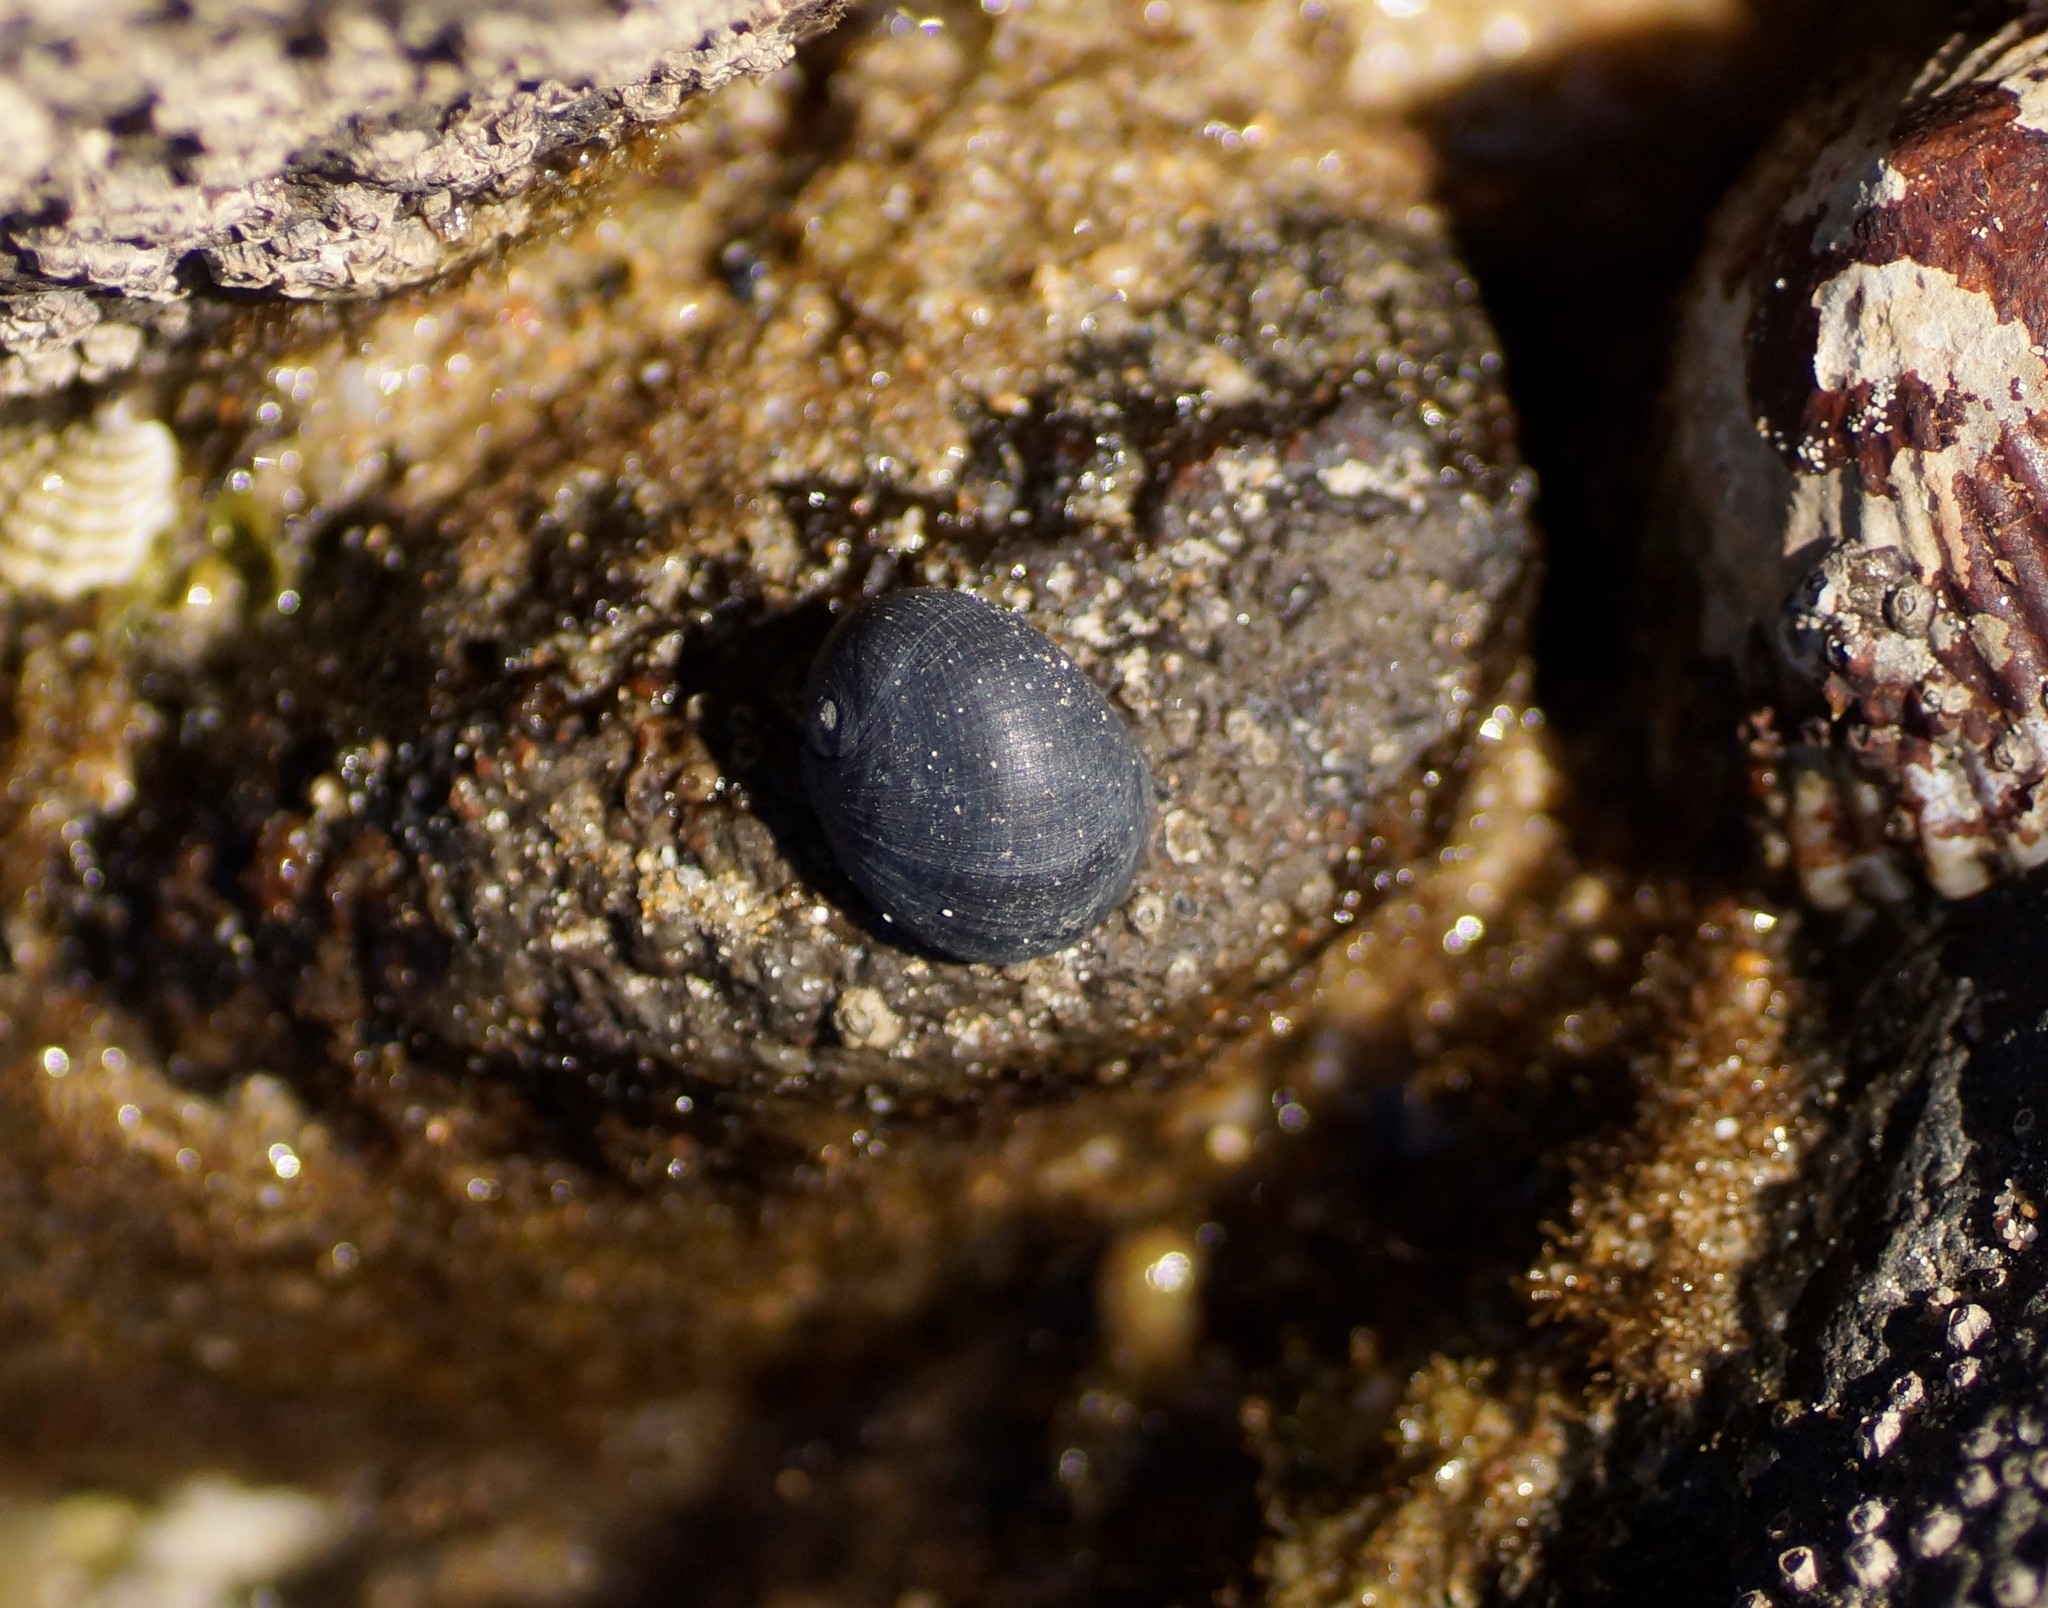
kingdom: Animalia
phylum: Mollusca
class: Gastropoda
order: Cycloneritida
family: Neritidae
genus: Nerita
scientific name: Nerita atramentosa
